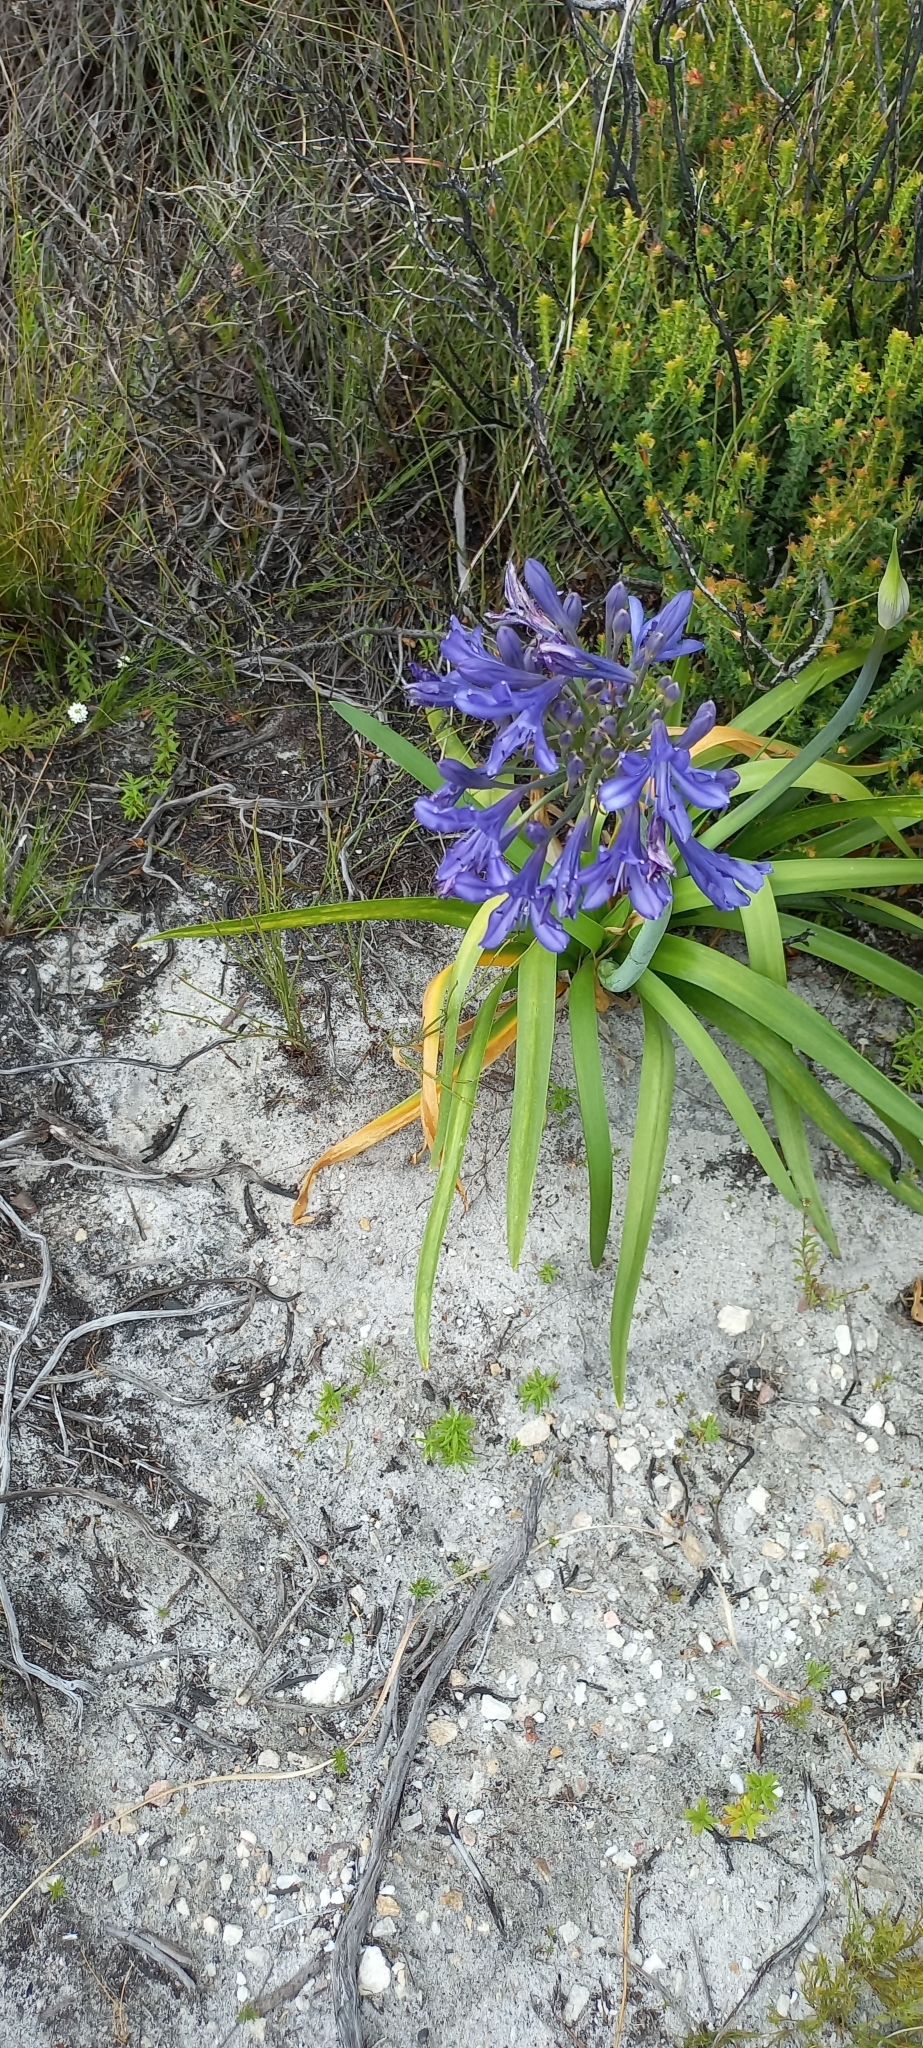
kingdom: Plantae
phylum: Tracheophyta
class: Liliopsida
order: Asparagales
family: Amaryllidaceae
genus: Agapanthus
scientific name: Agapanthus africanus
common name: Lily-of-the-nile
